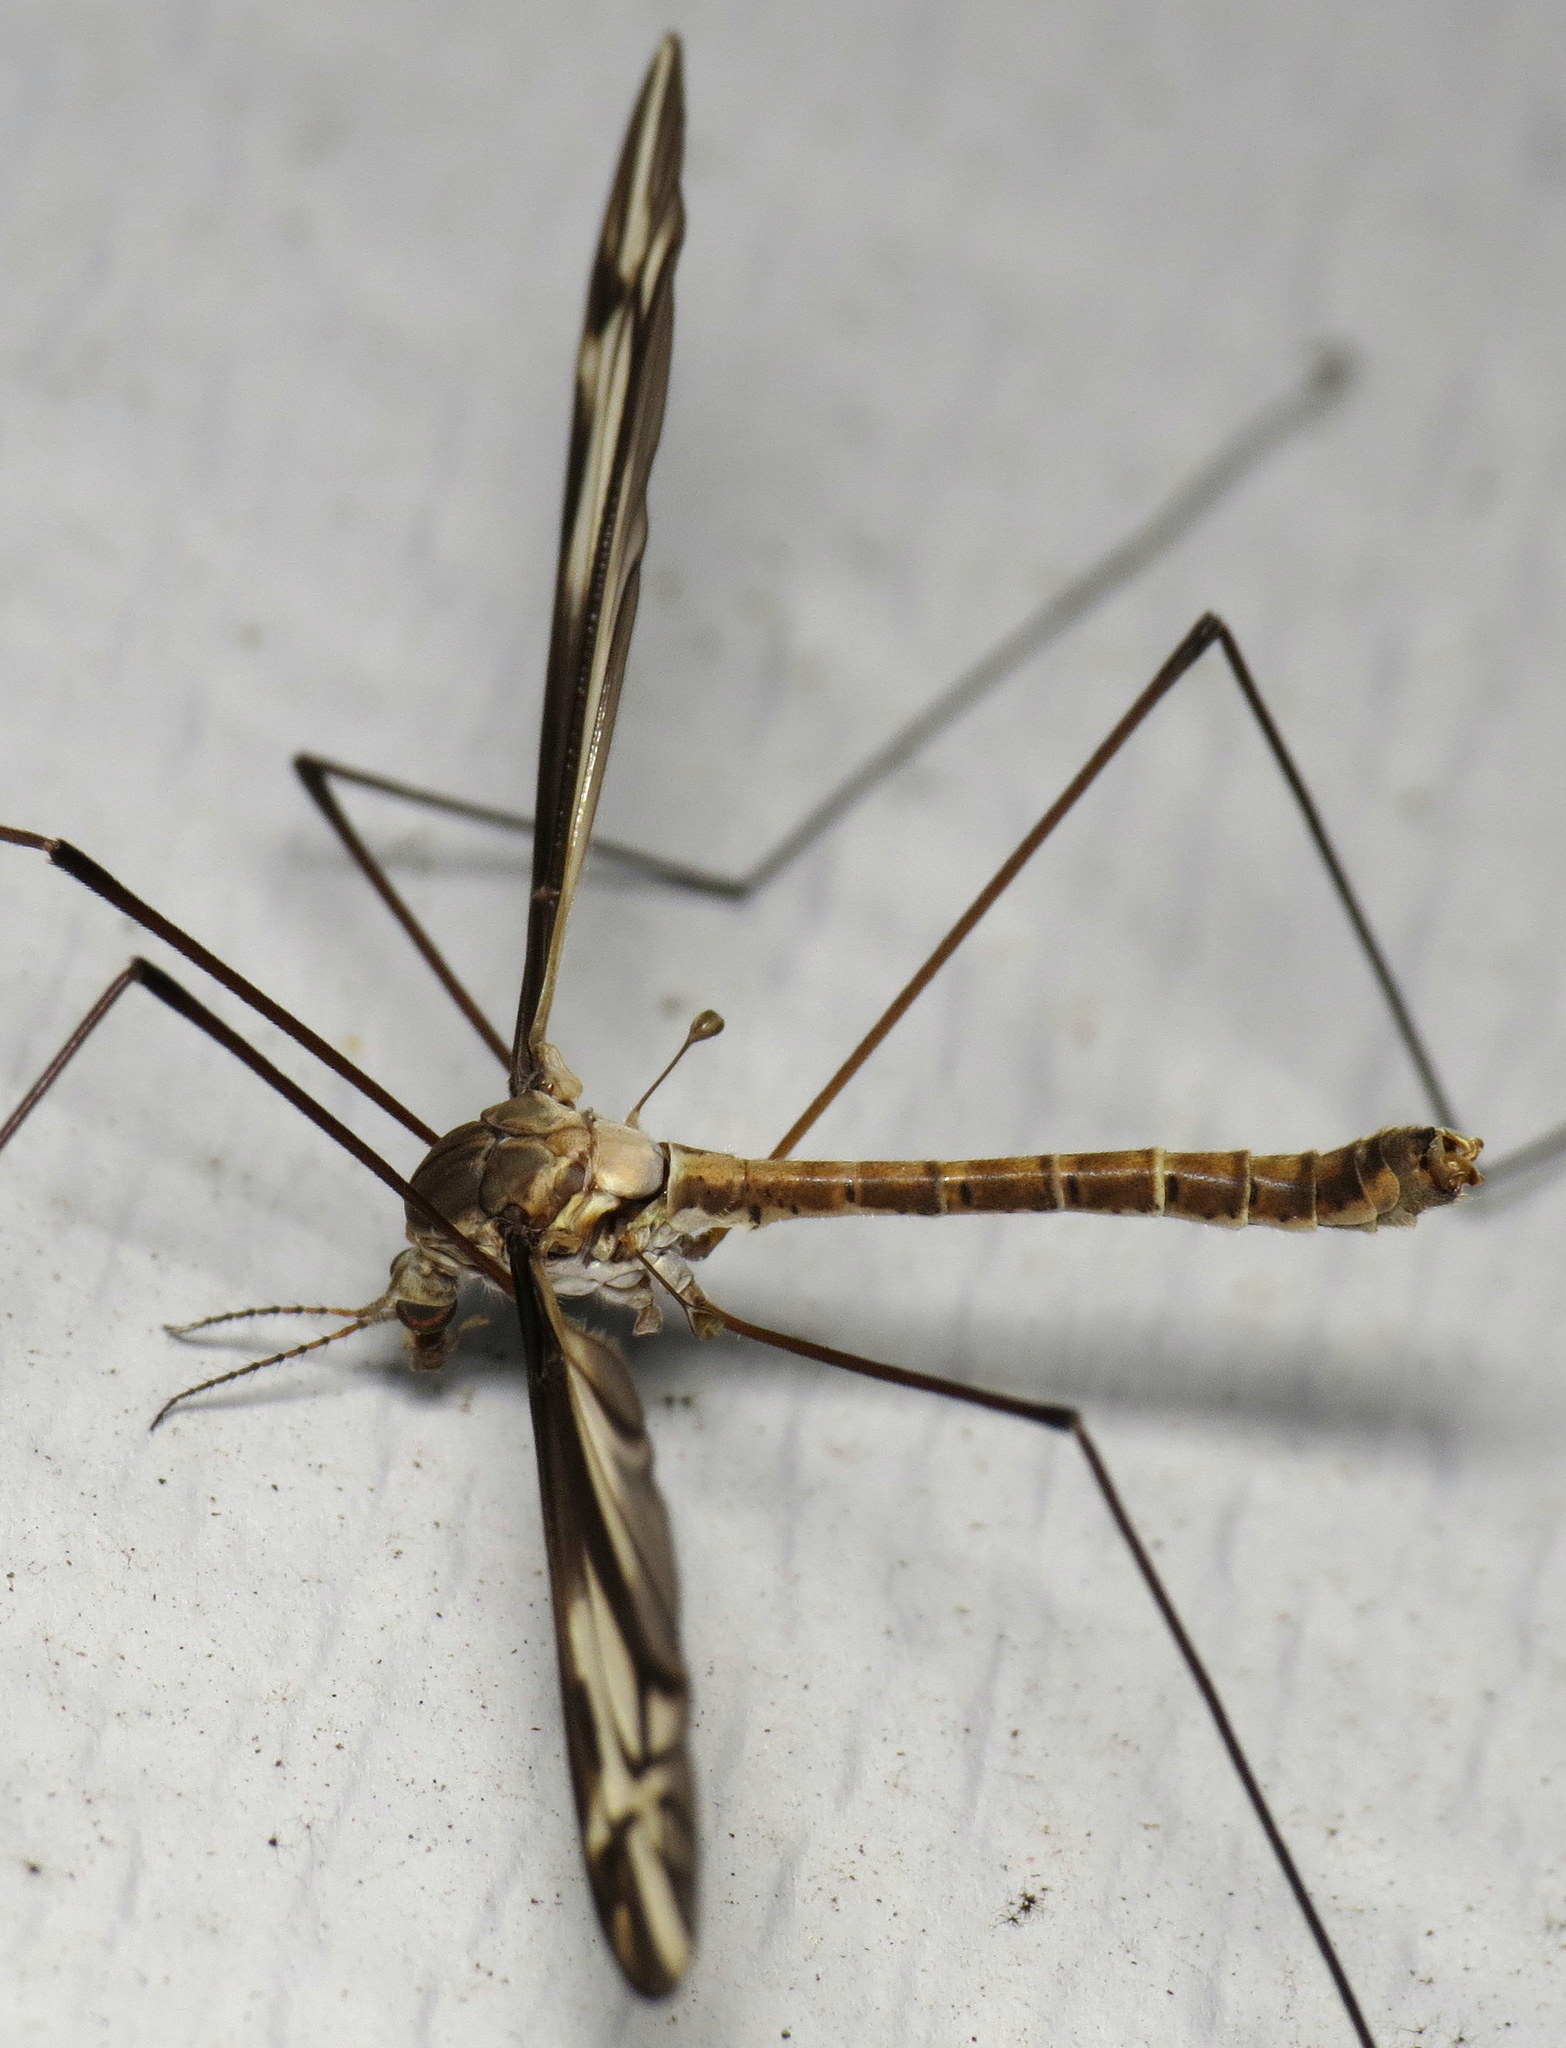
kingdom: Animalia
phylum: Arthropoda
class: Insecta
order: Diptera
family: Tipulidae
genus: Tipula
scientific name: Tipula furca
